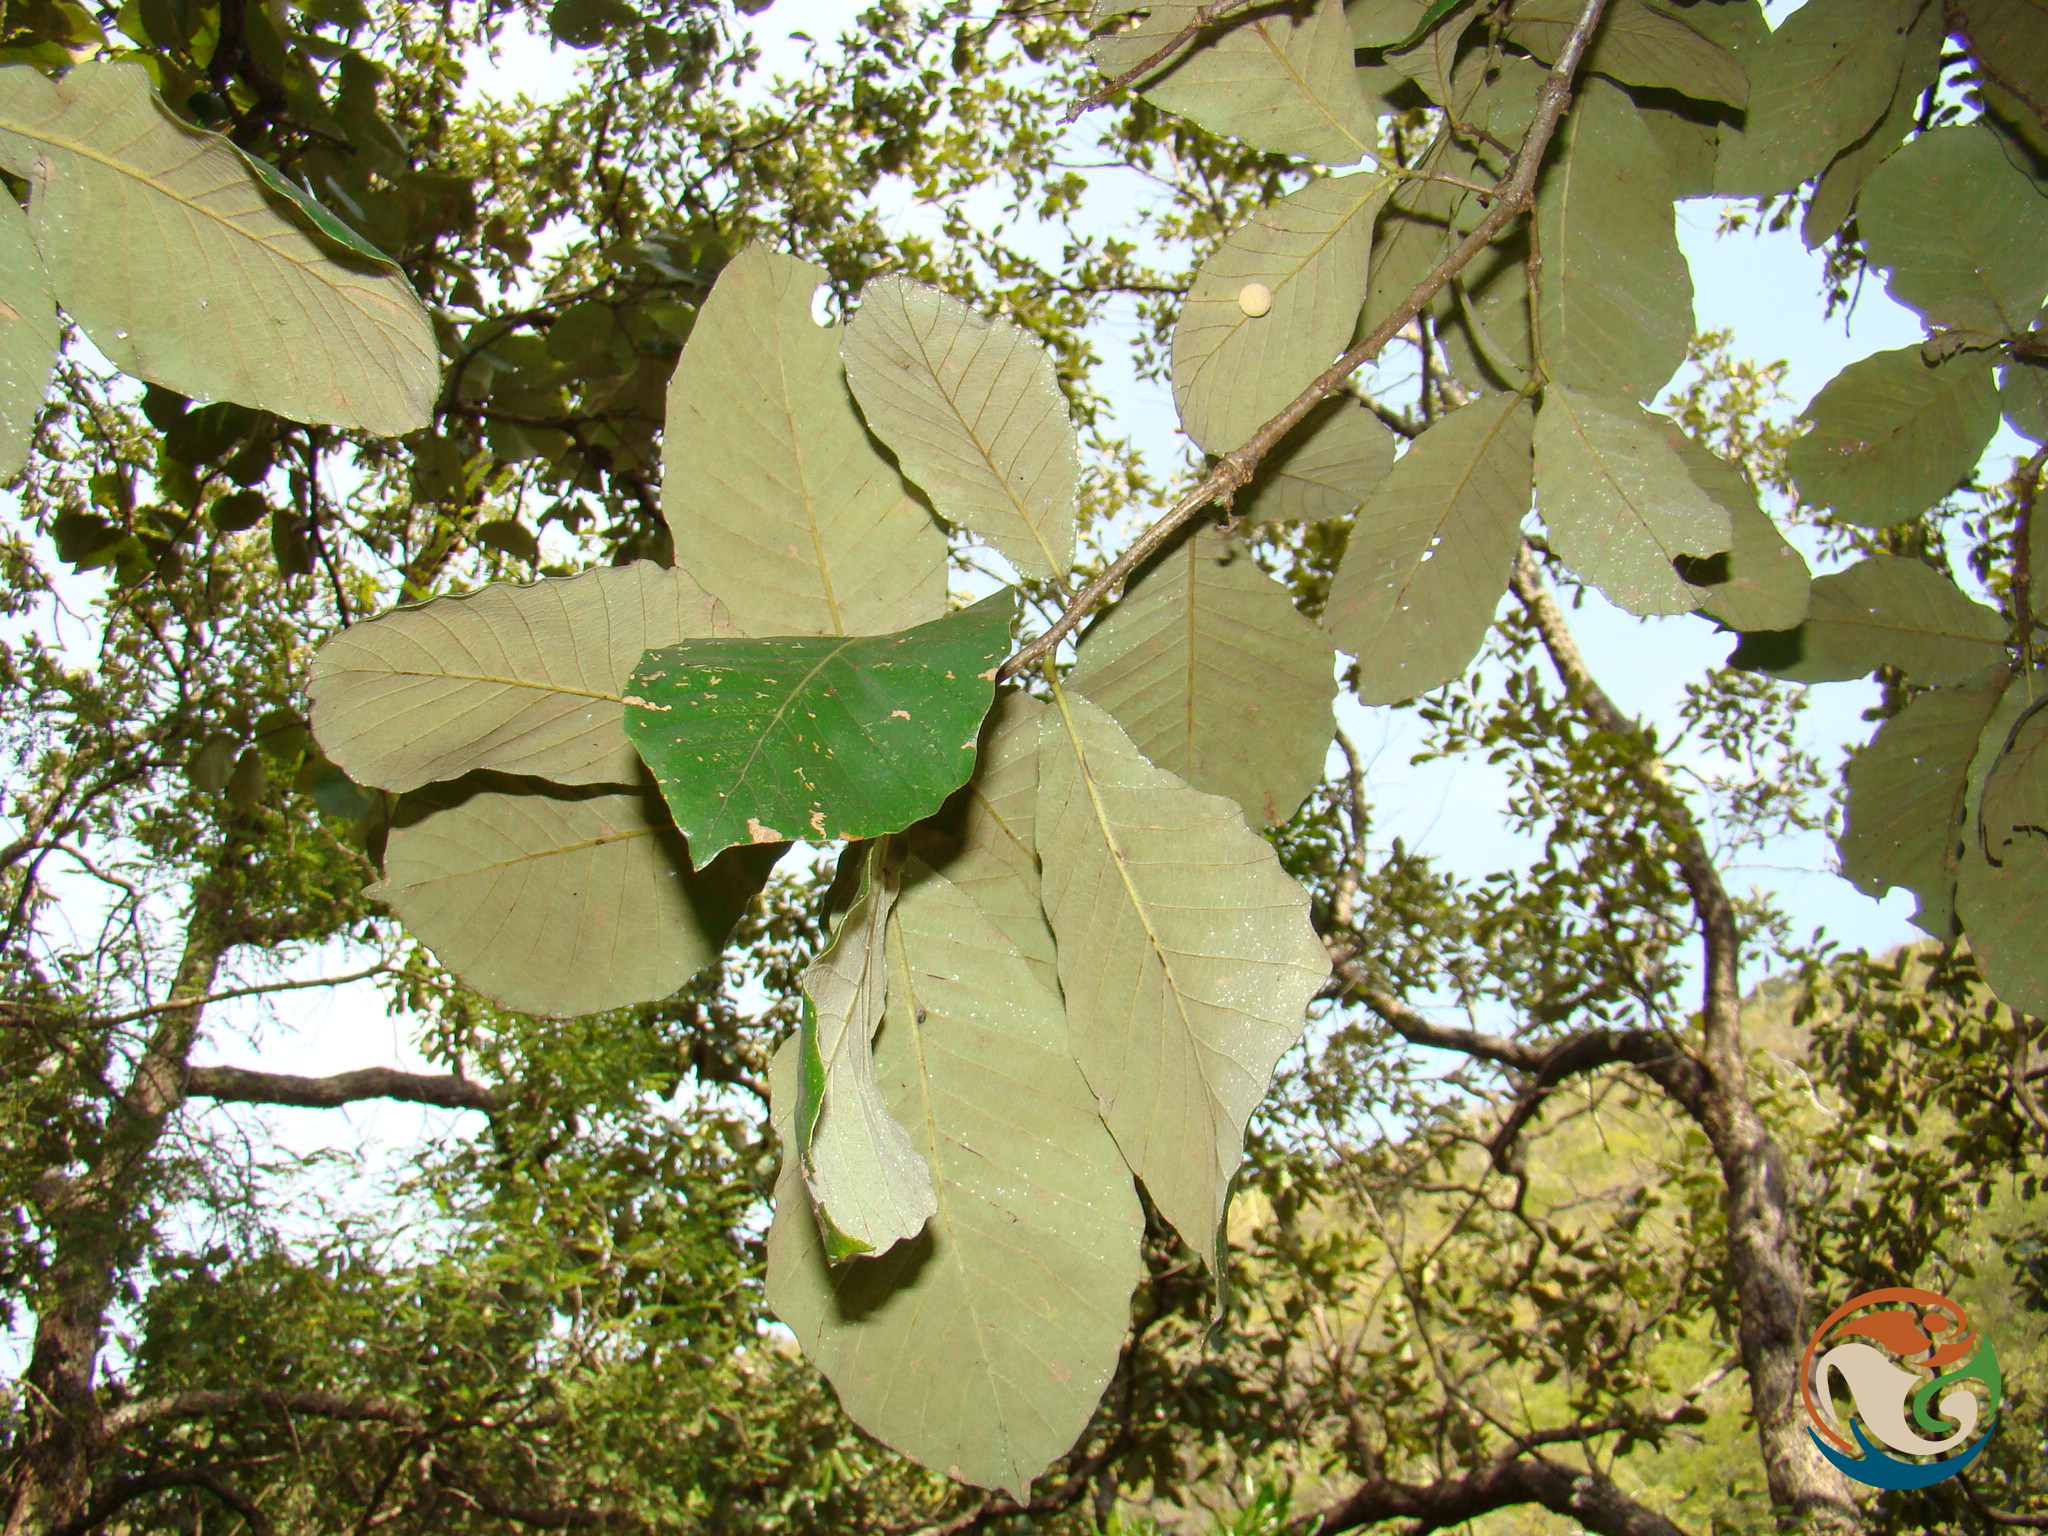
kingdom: Plantae
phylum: Tracheophyta
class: Magnoliopsida
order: Fagales
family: Fagaceae
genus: Quercus
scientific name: Quercus liebmannii
